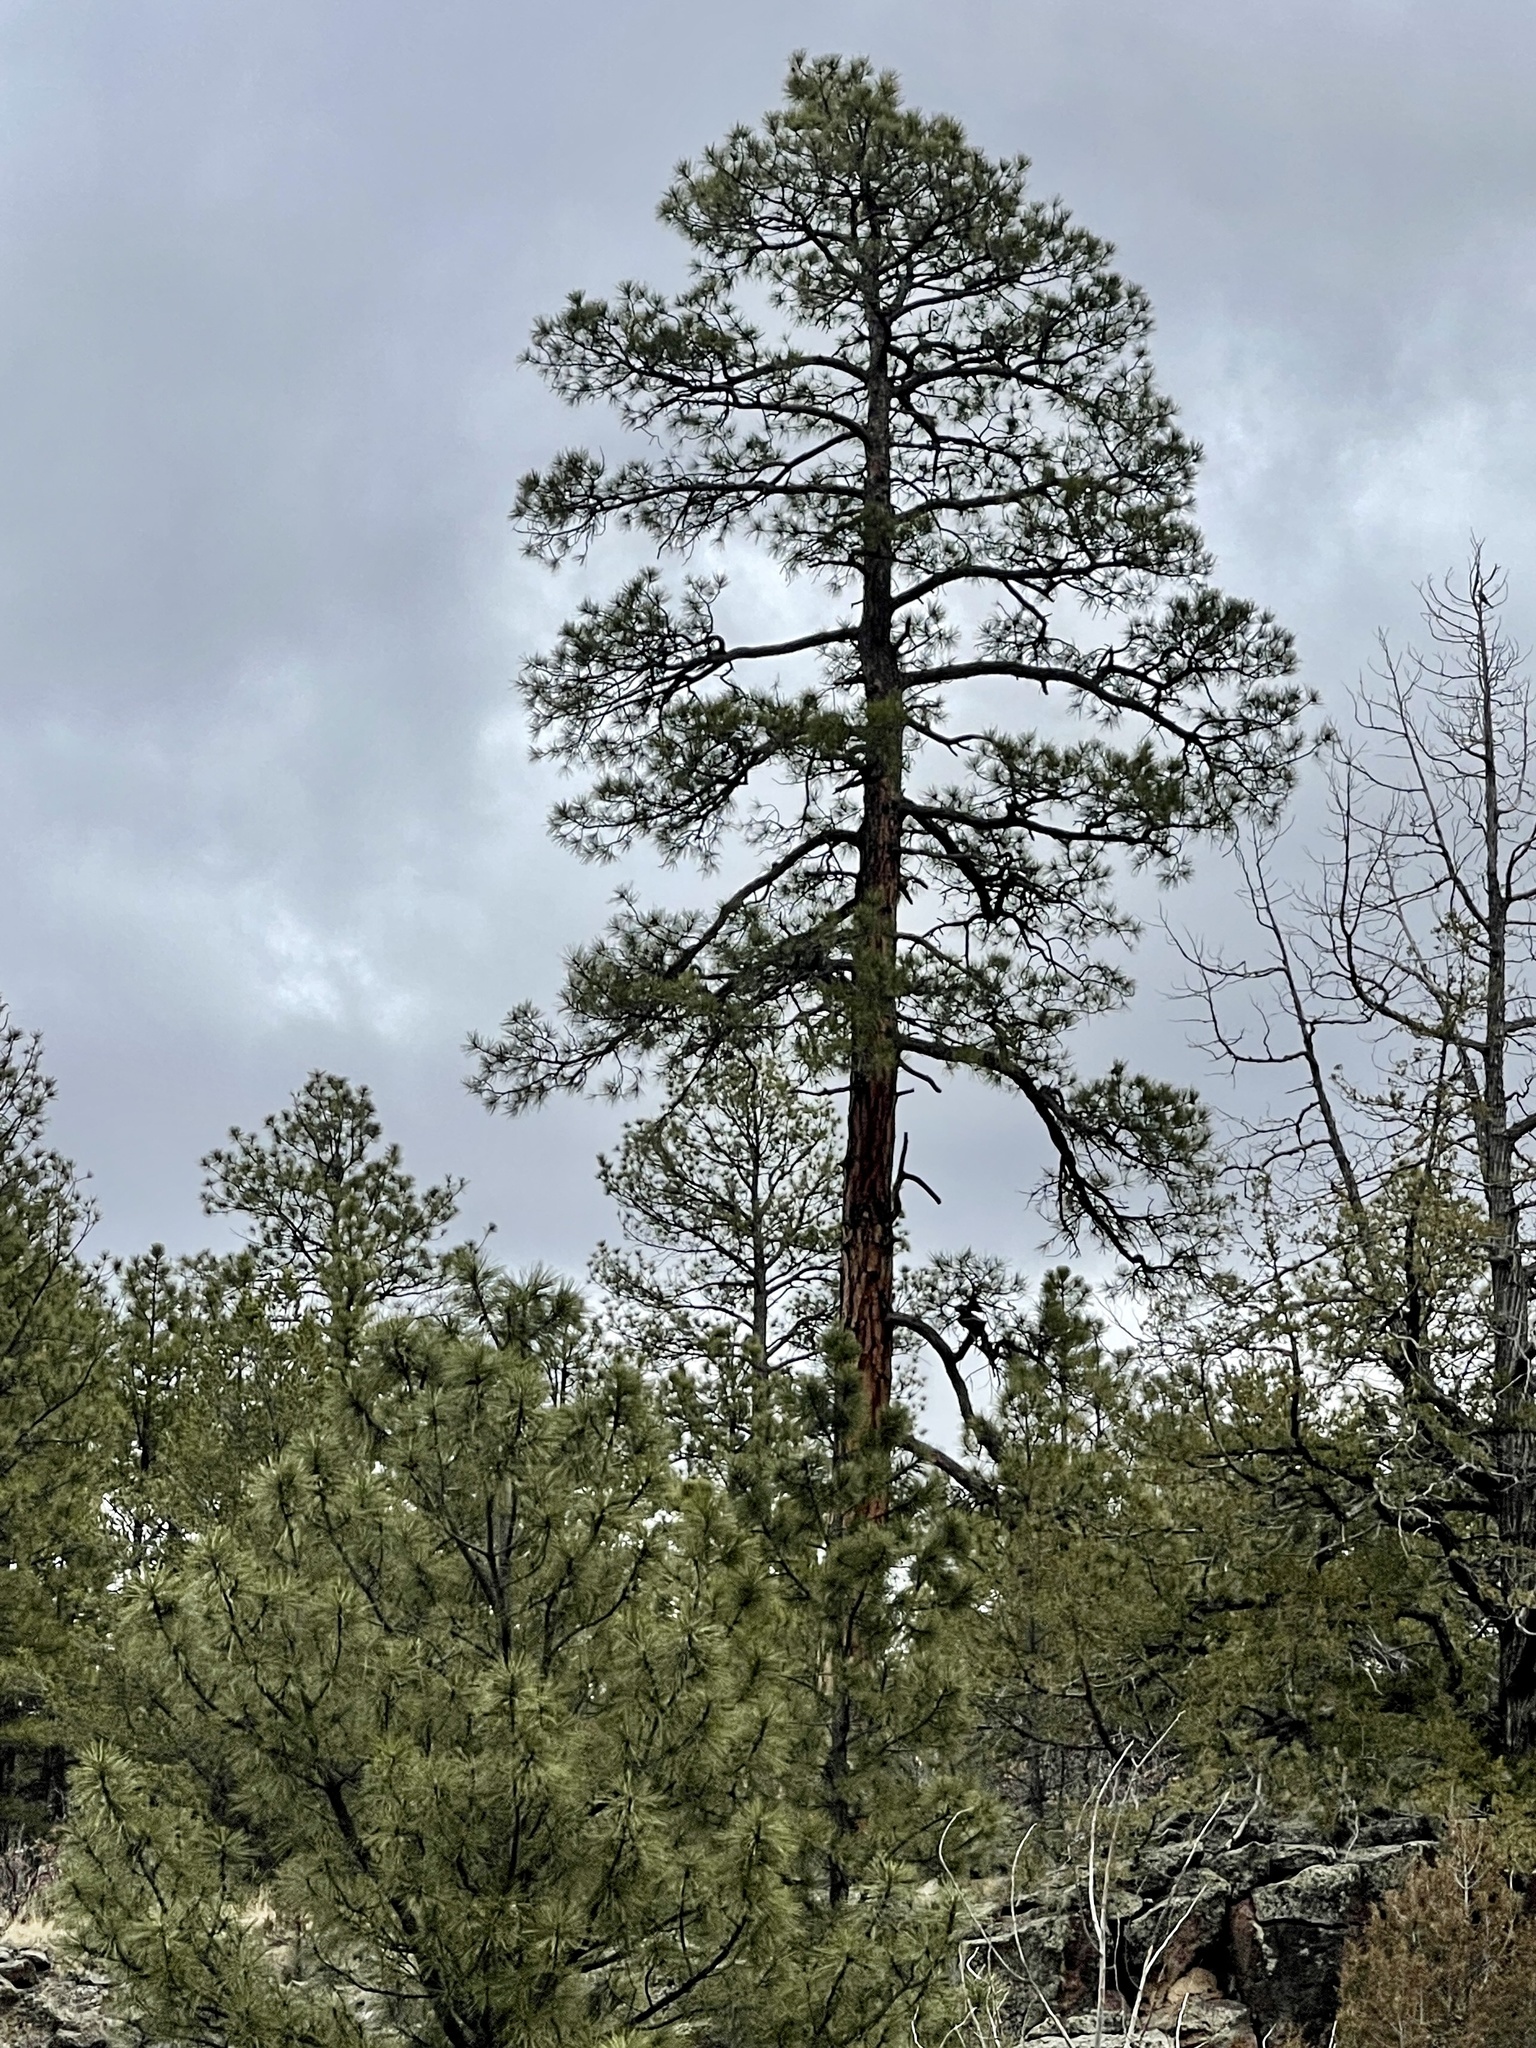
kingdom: Plantae
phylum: Tracheophyta
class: Pinopsida
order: Pinales
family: Pinaceae
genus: Pinus
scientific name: Pinus ponderosa
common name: Western yellow-pine
